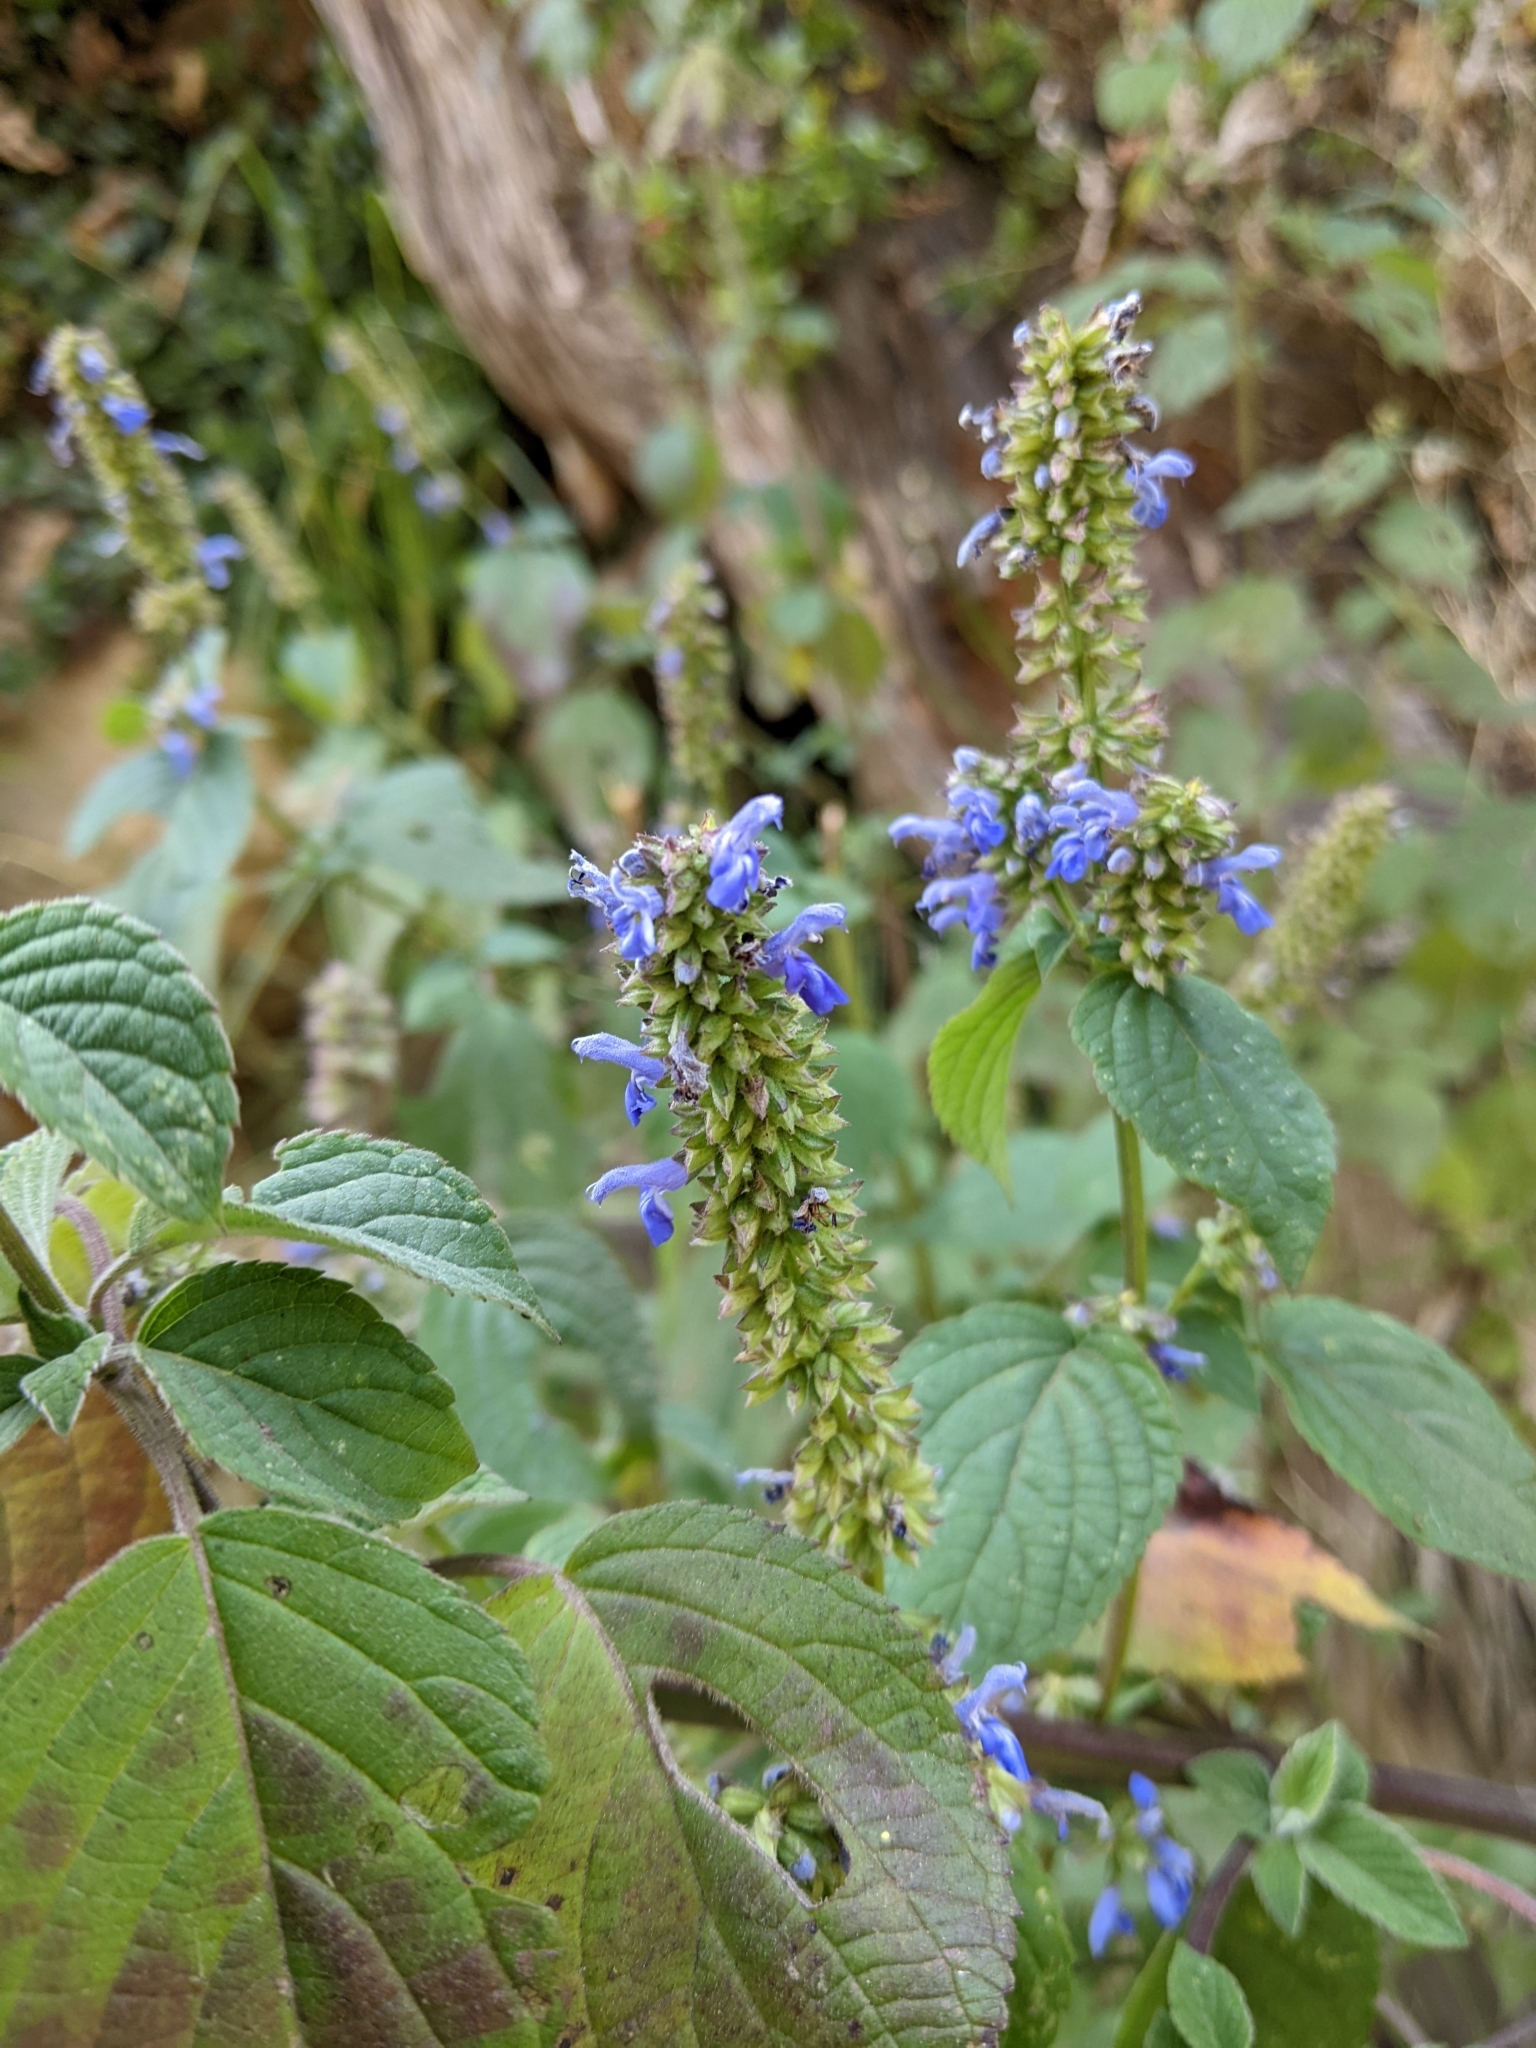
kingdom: Plantae
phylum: Tracheophyta
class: Magnoliopsida
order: Lamiales
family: Lamiaceae
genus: Salvia
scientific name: Salvia polystachia
